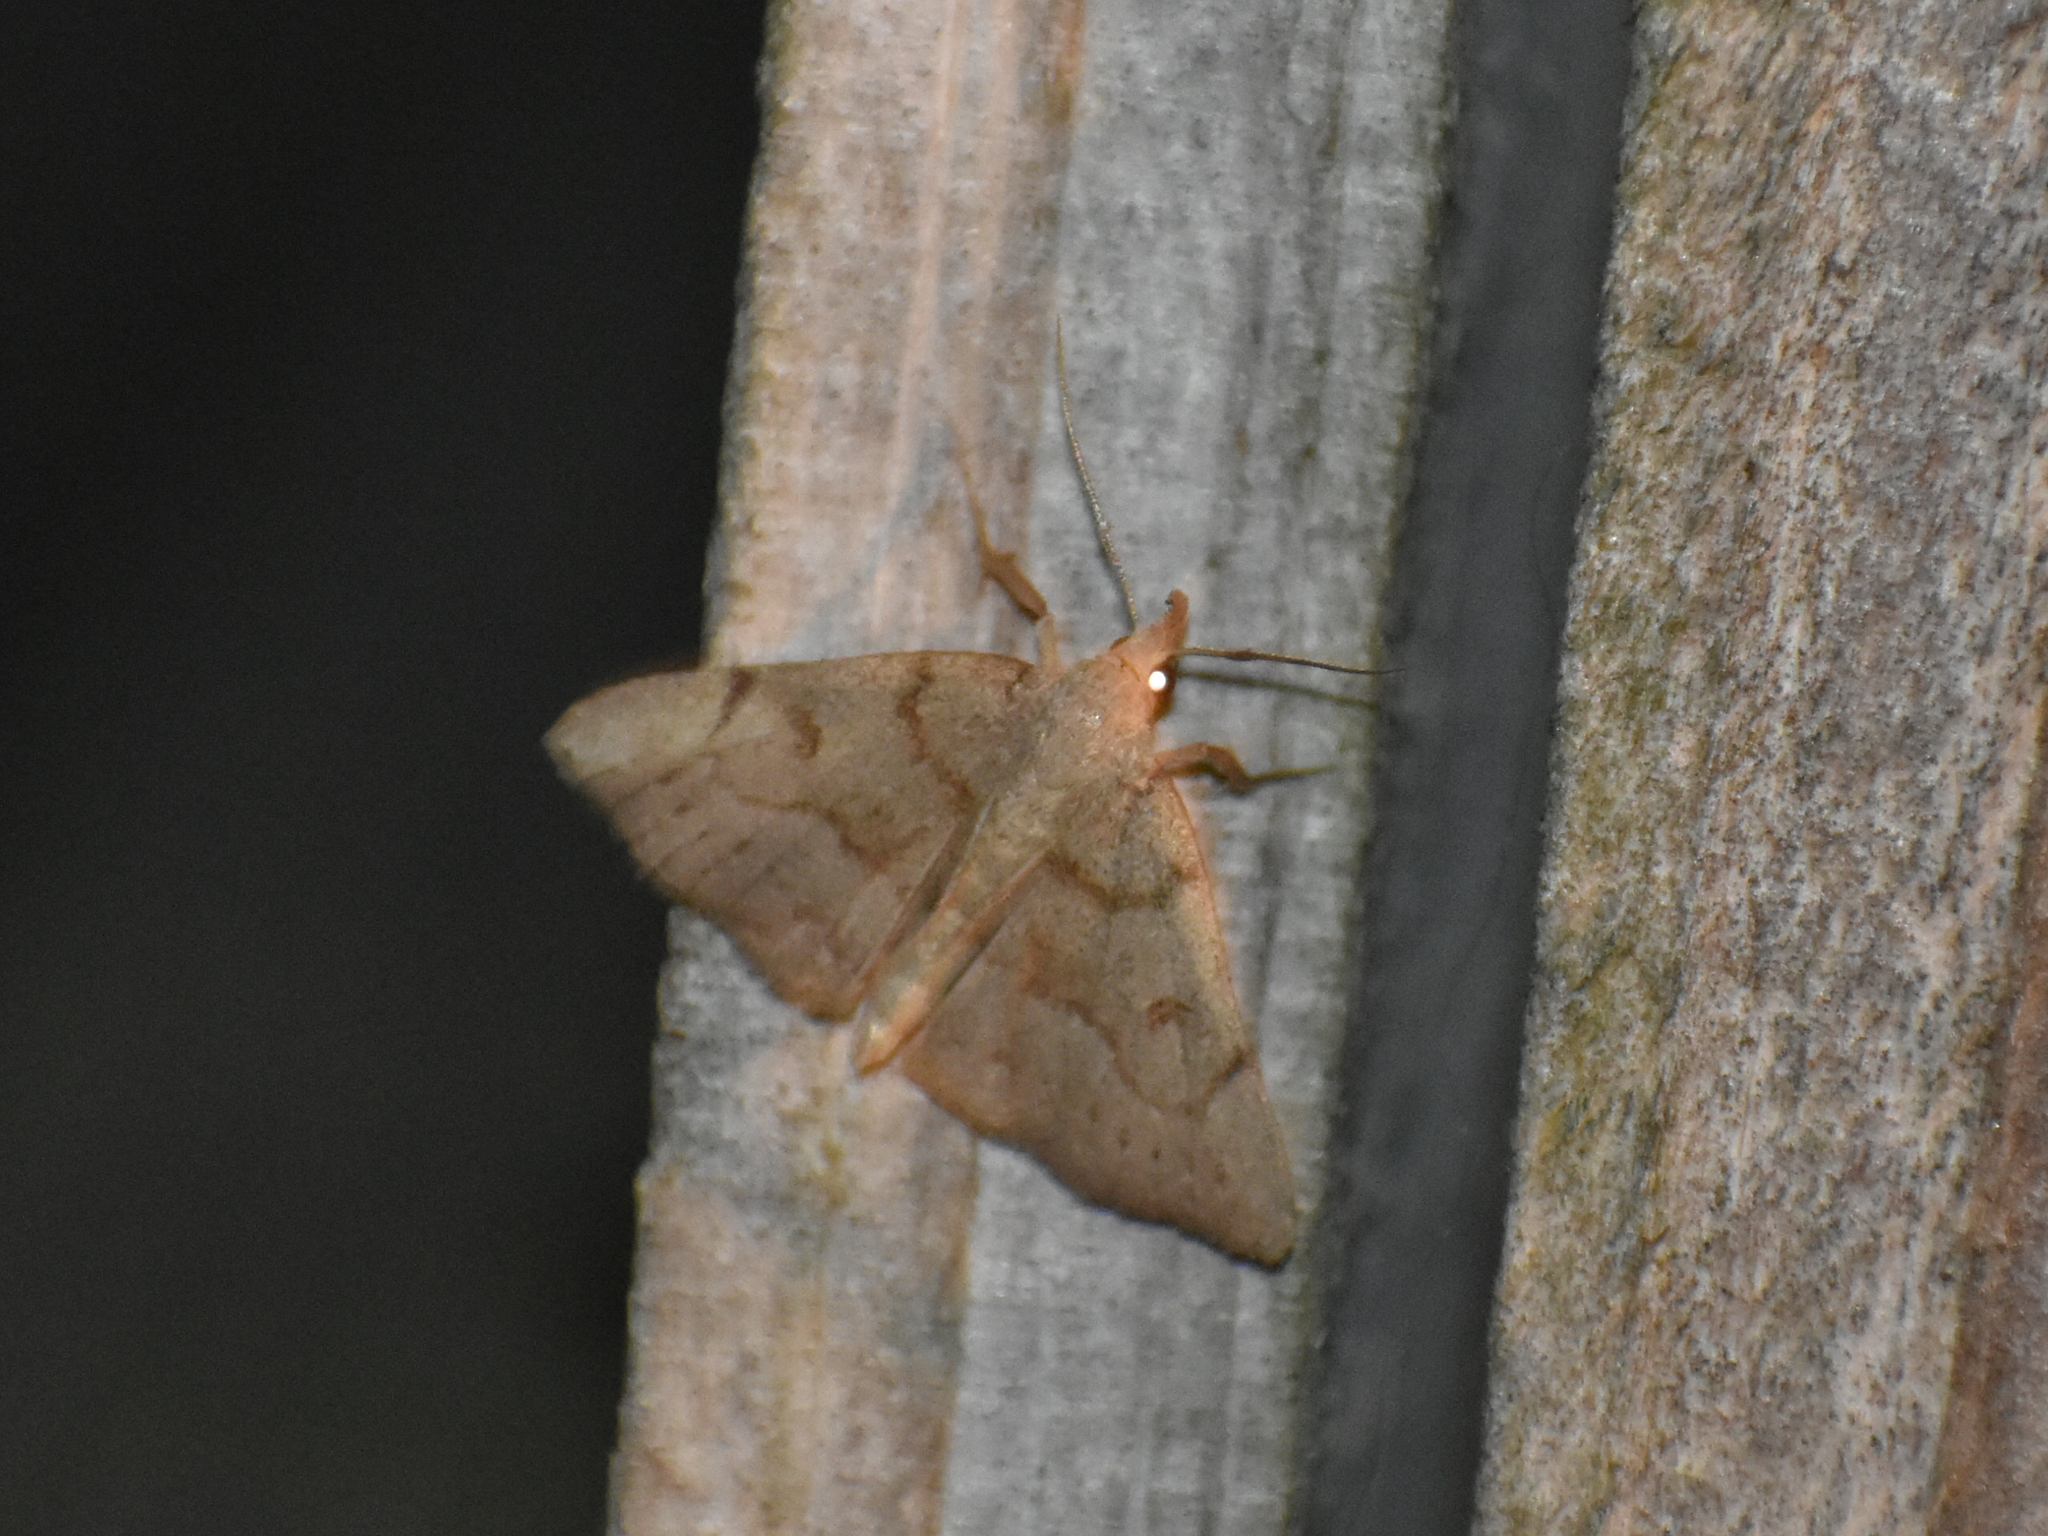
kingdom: Animalia
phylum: Arthropoda
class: Insecta
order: Lepidoptera
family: Erebidae
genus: Macrochilo
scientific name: Macrochilo morbidalis
